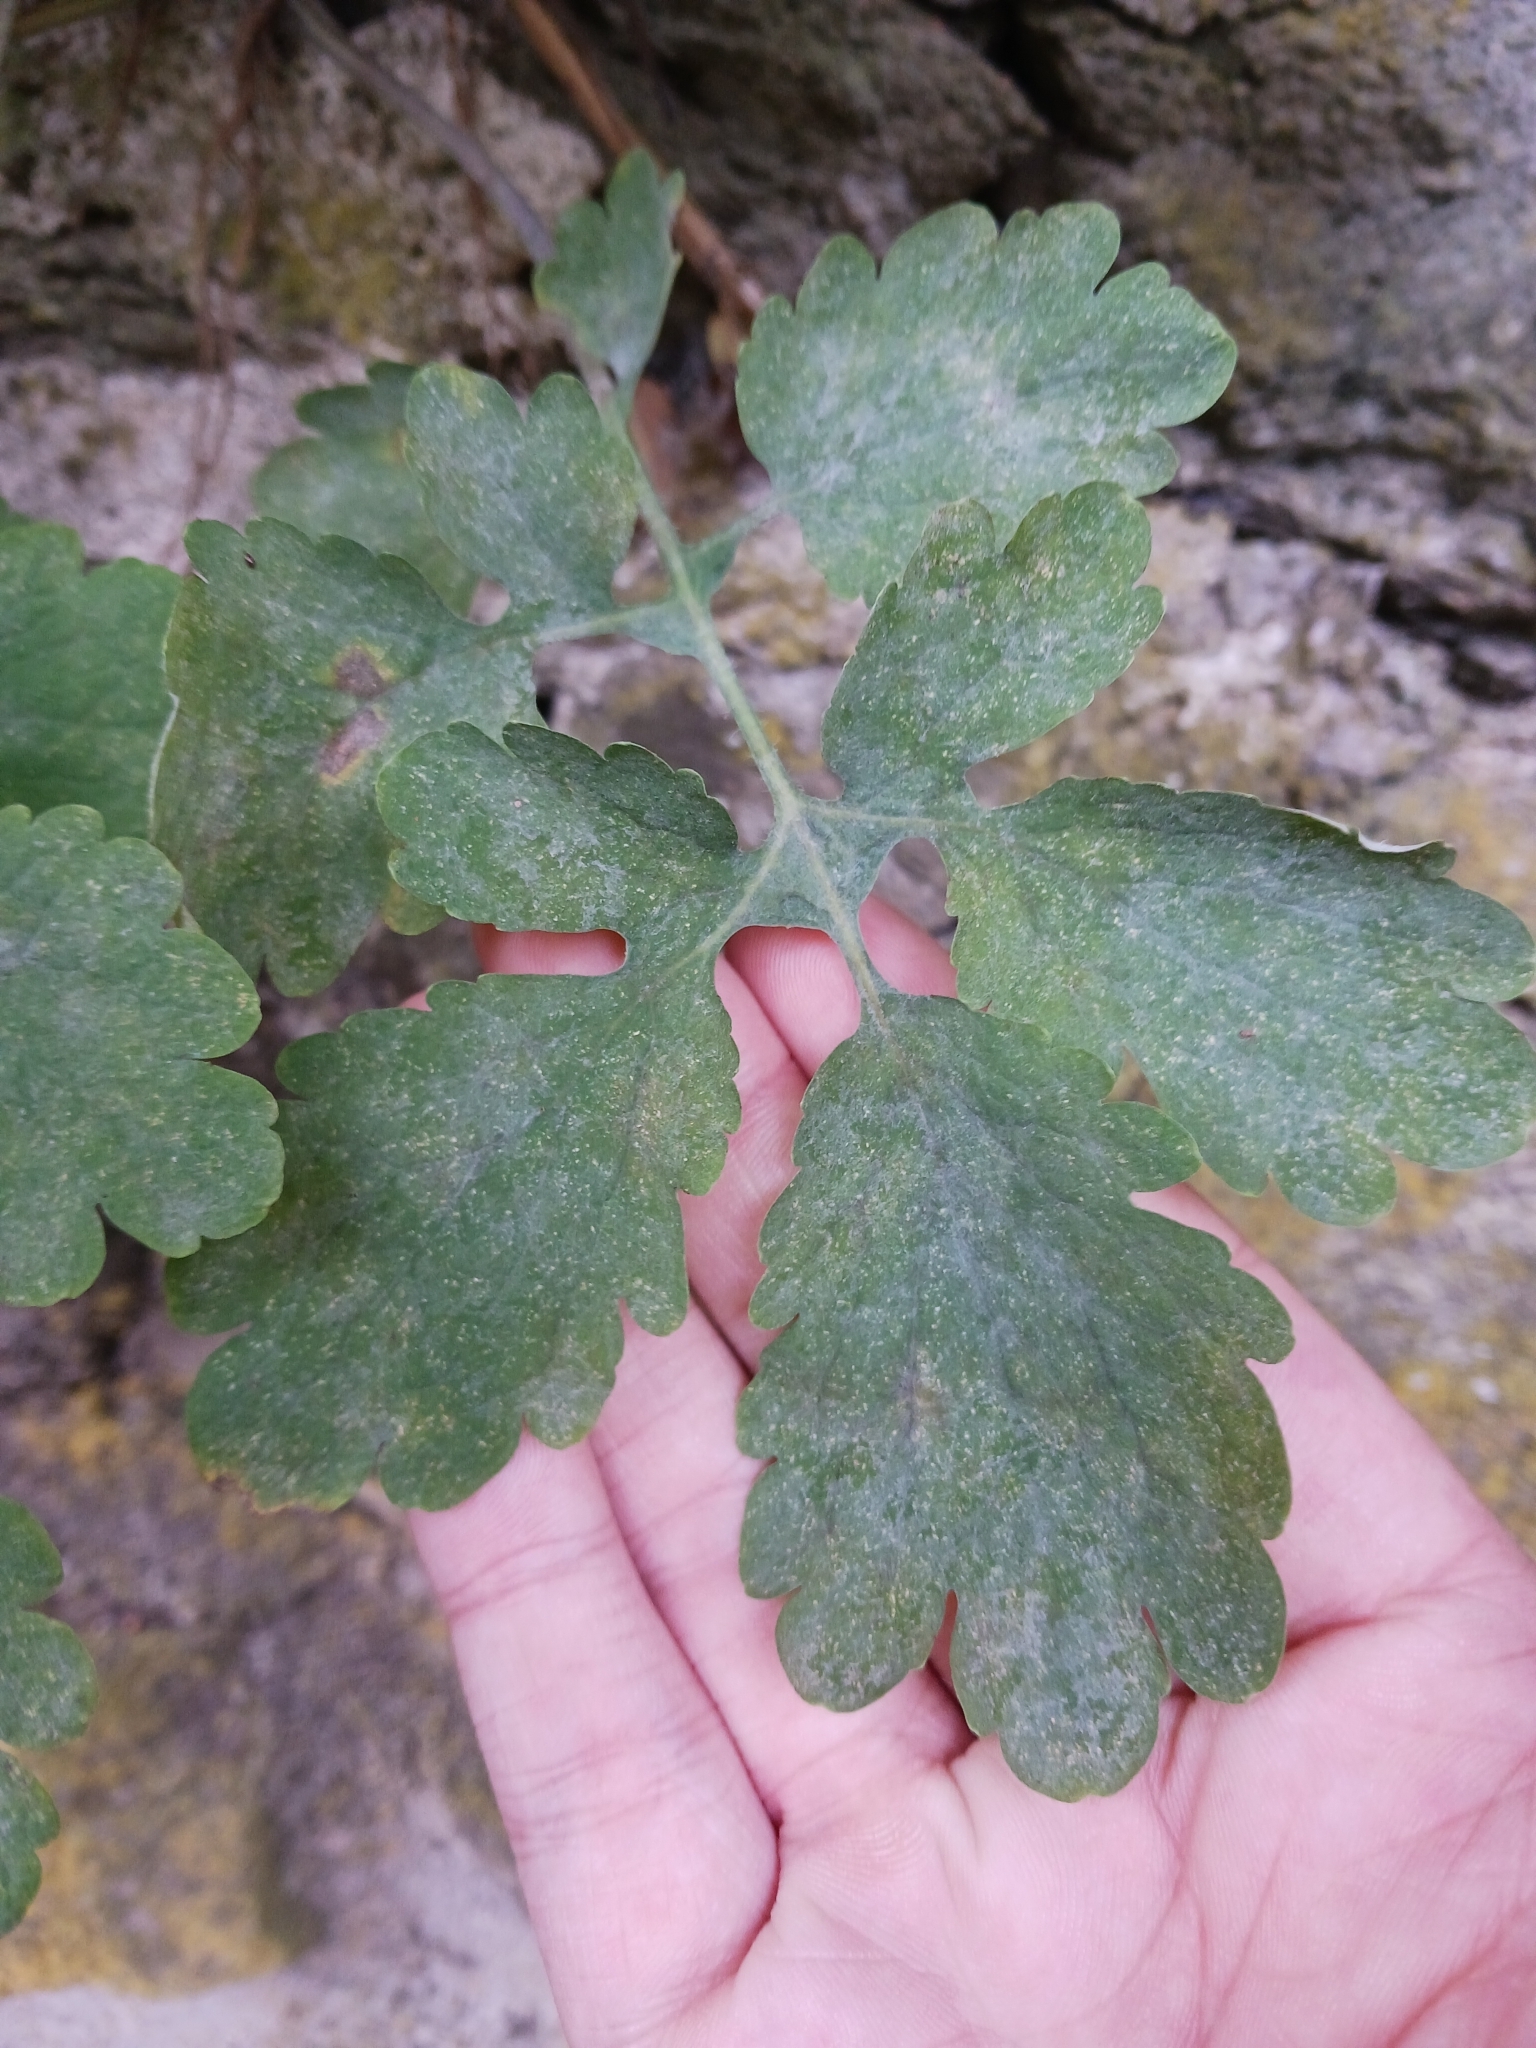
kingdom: Fungi
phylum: Ascomycota
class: Leotiomycetes
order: Helotiales
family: Erysiphaceae
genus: Erysiphe
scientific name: Erysiphe macleayae
